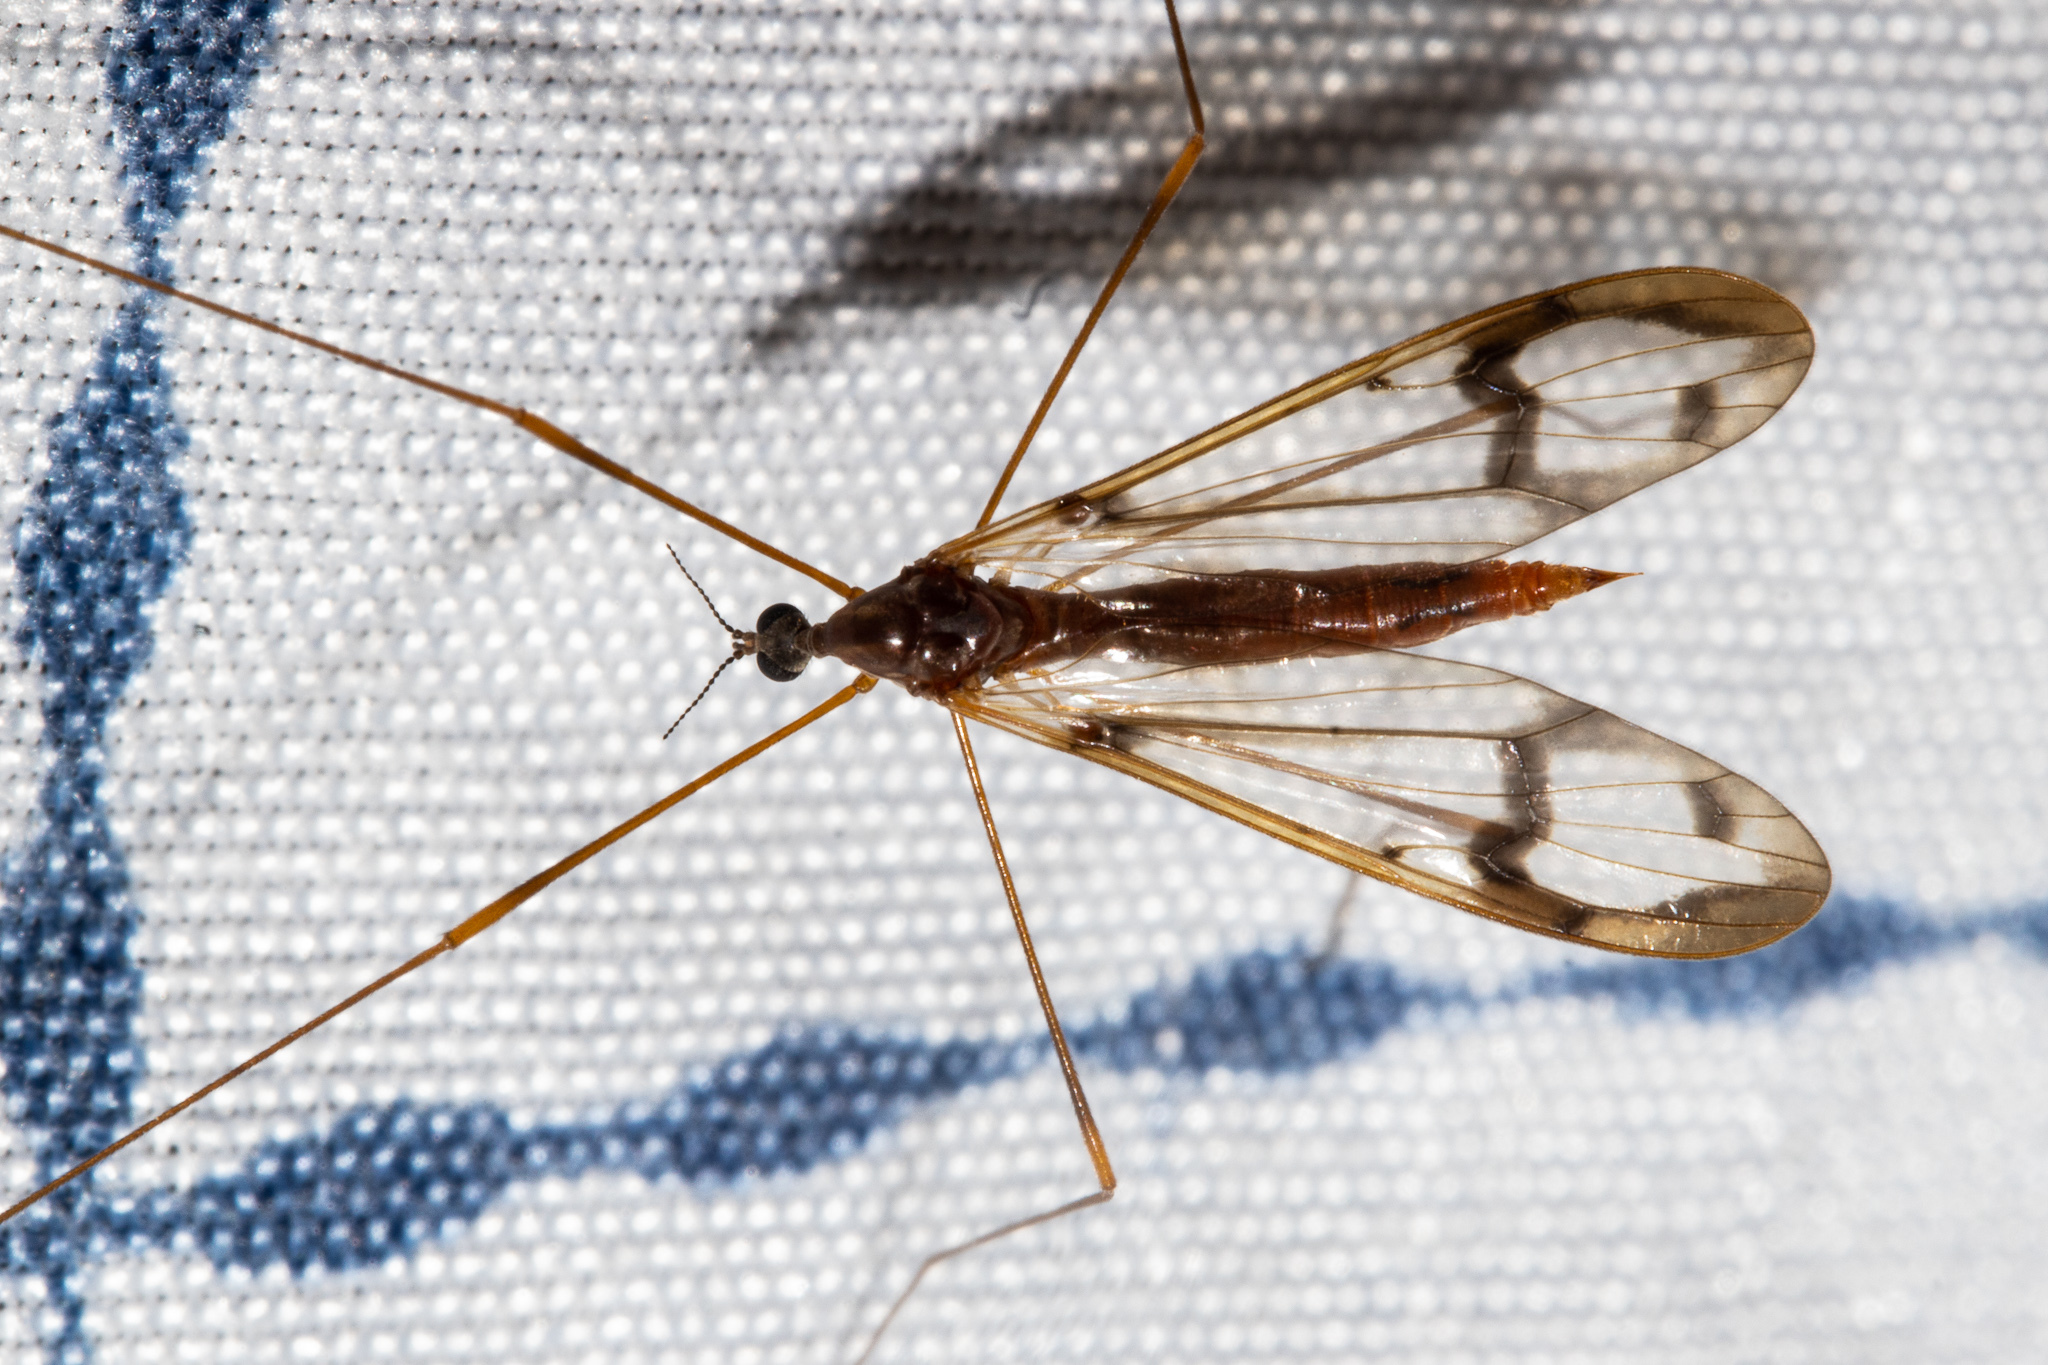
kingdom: Animalia
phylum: Arthropoda
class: Insecta
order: Diptera
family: Limoniidae
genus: Dicranomyia
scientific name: Dicranomyia repanda
